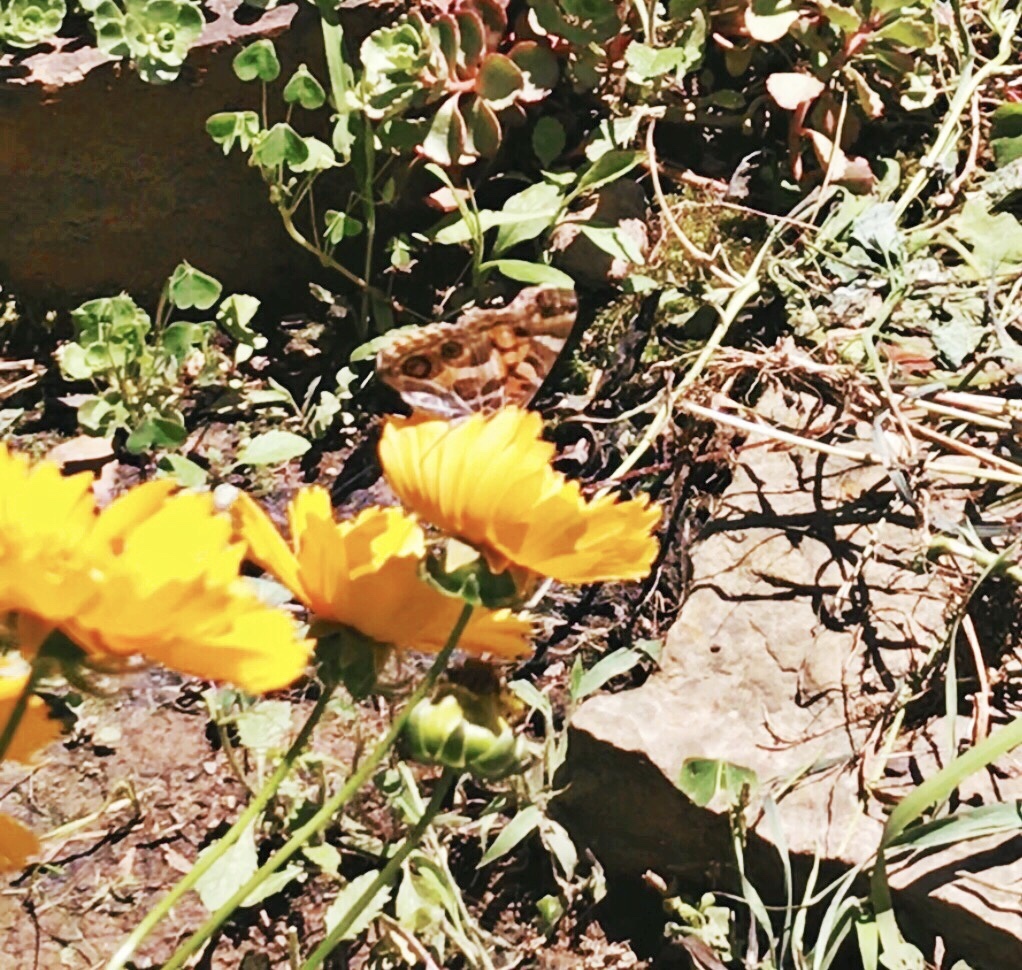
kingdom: Animalia
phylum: Arthropoda
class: Insecta
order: Lepidoptera
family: Nymphalidae
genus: Vanessa
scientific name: Vanessa virginiensis
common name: American lady
